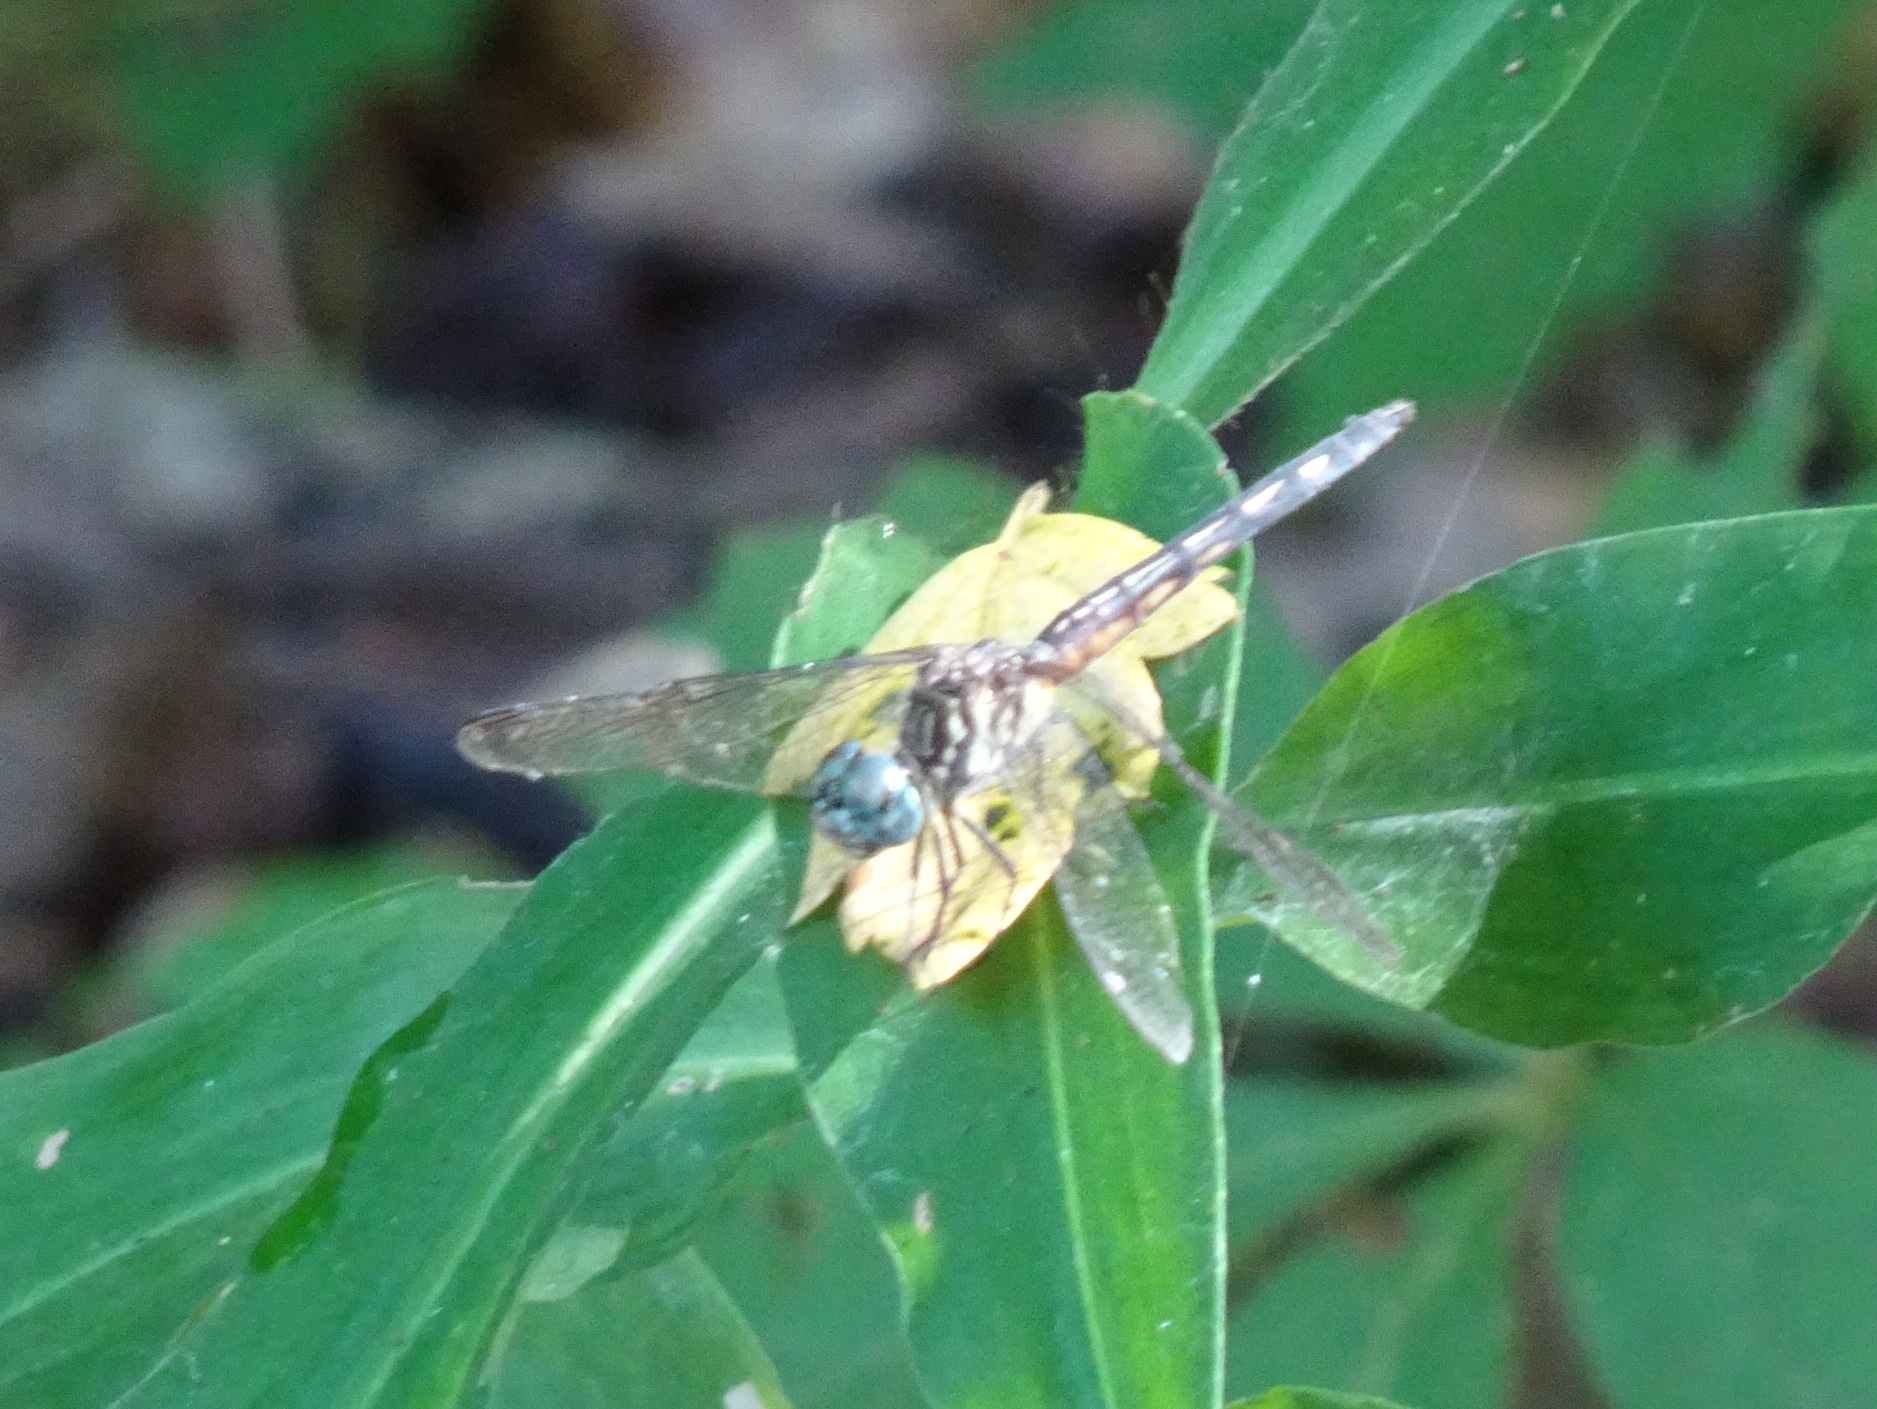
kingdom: Animalia
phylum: Arthropoda
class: Insecta
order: Odonata
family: Libellulidae
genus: Pachydiplax
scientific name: Pachydiplax longipennis
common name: Blue dasher
